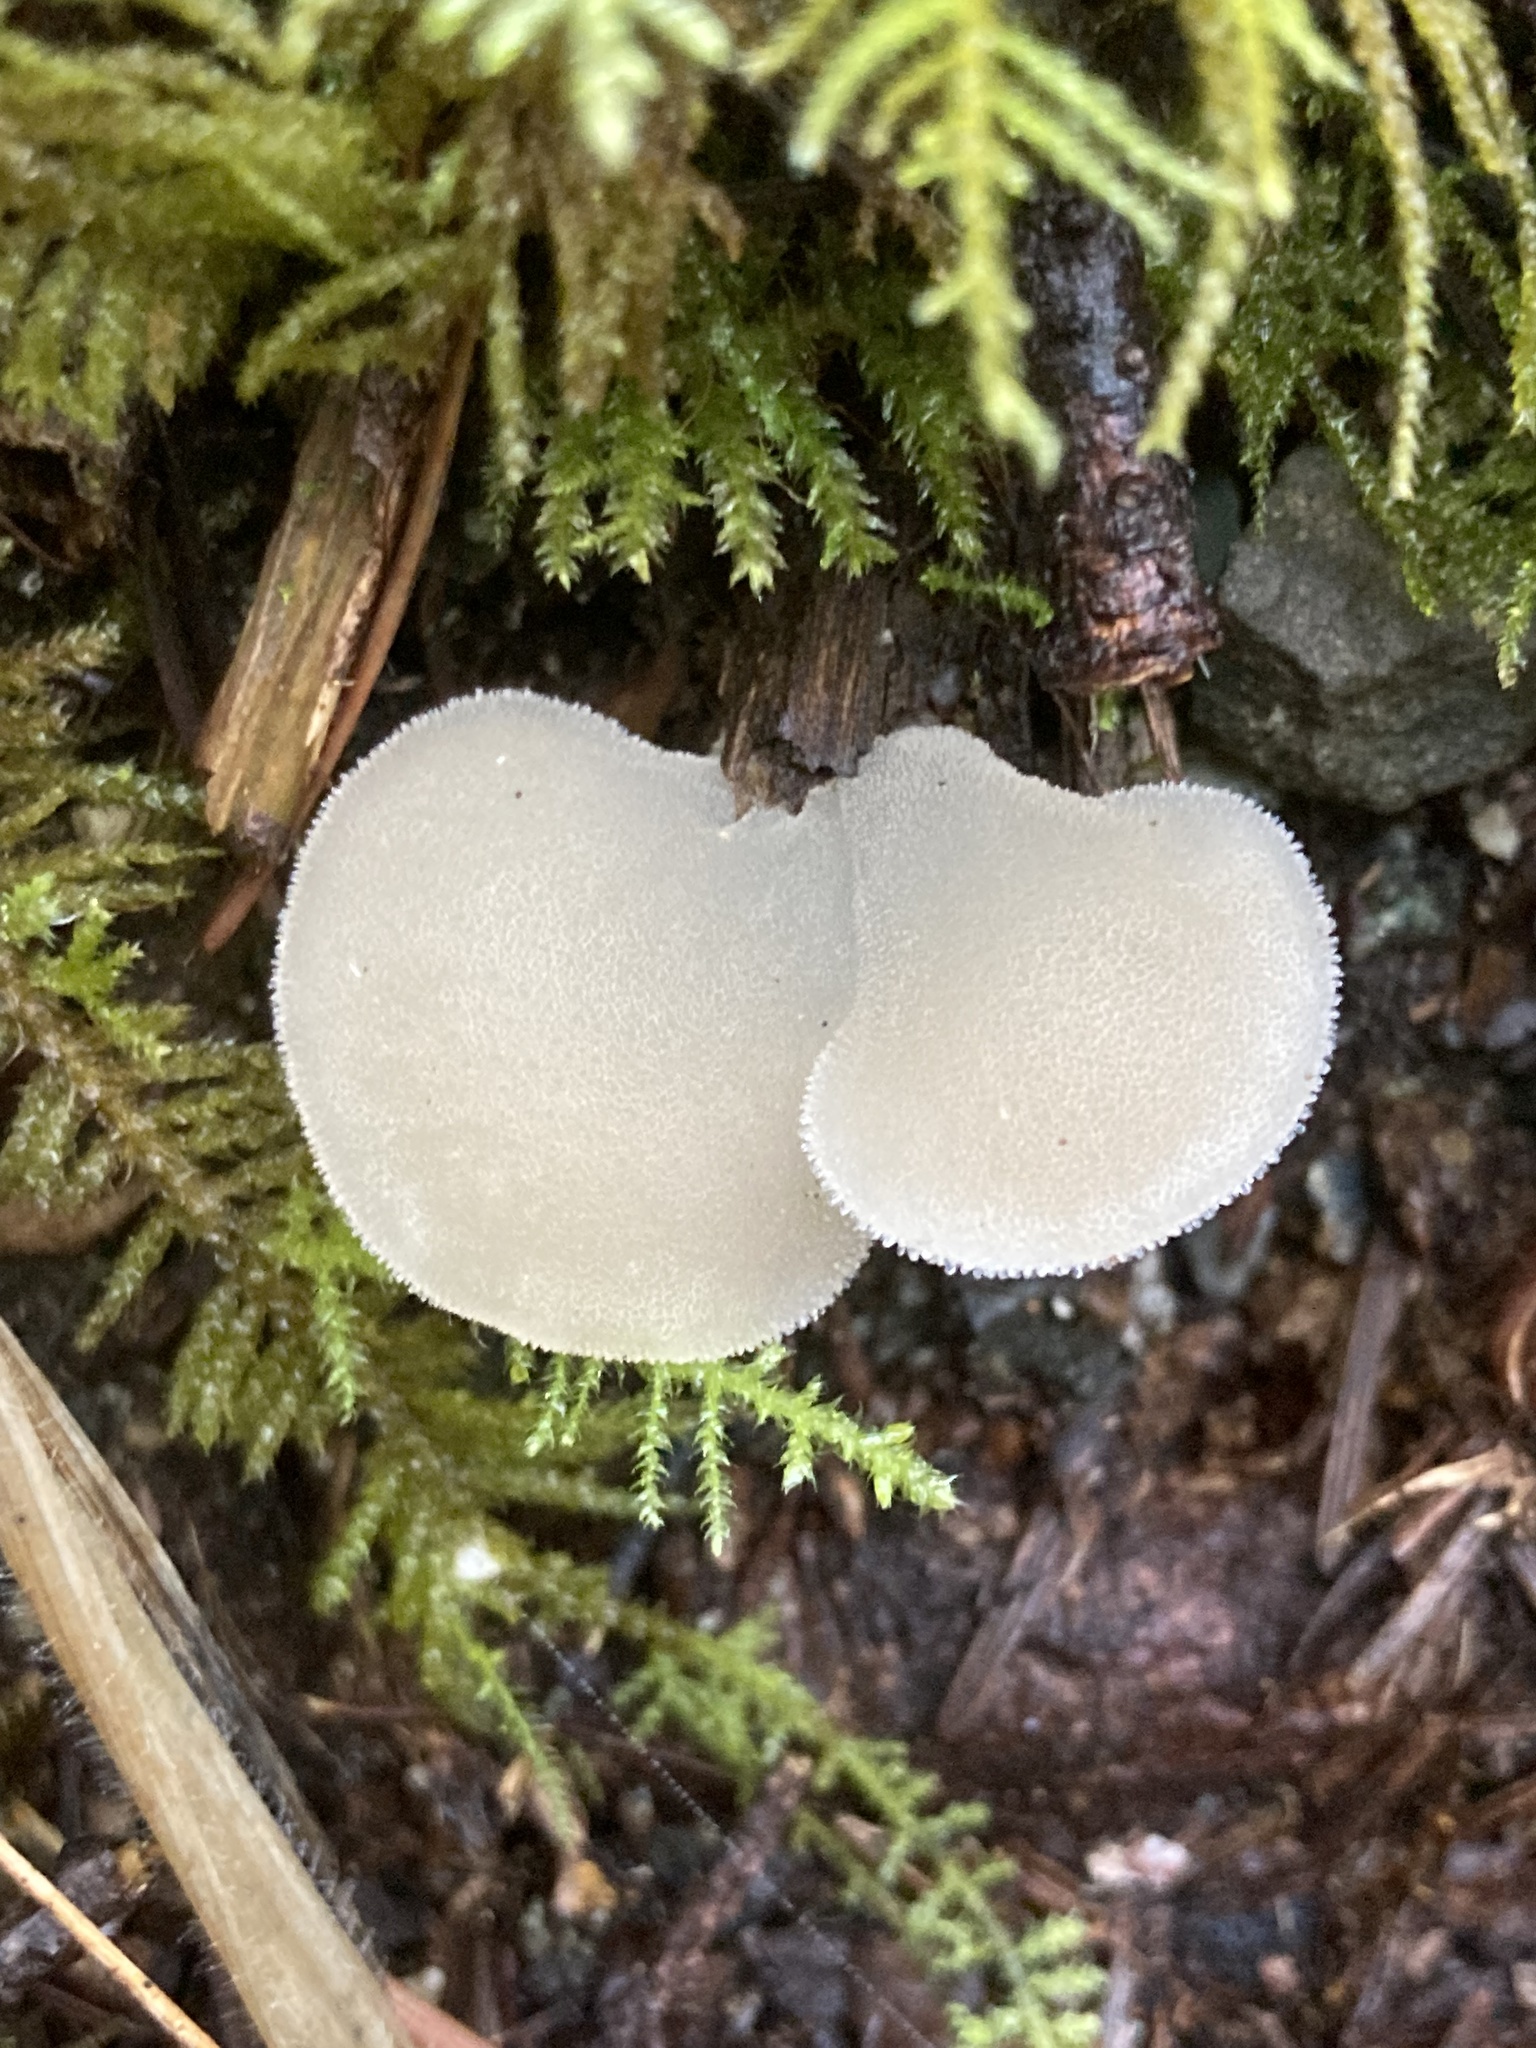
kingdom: Fungi
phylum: Basidiomycota
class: Agaricomycetes
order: Auriculariales
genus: Pseudohydnum
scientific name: Pseudohydnum gelatinosum
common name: Jelly tongue
